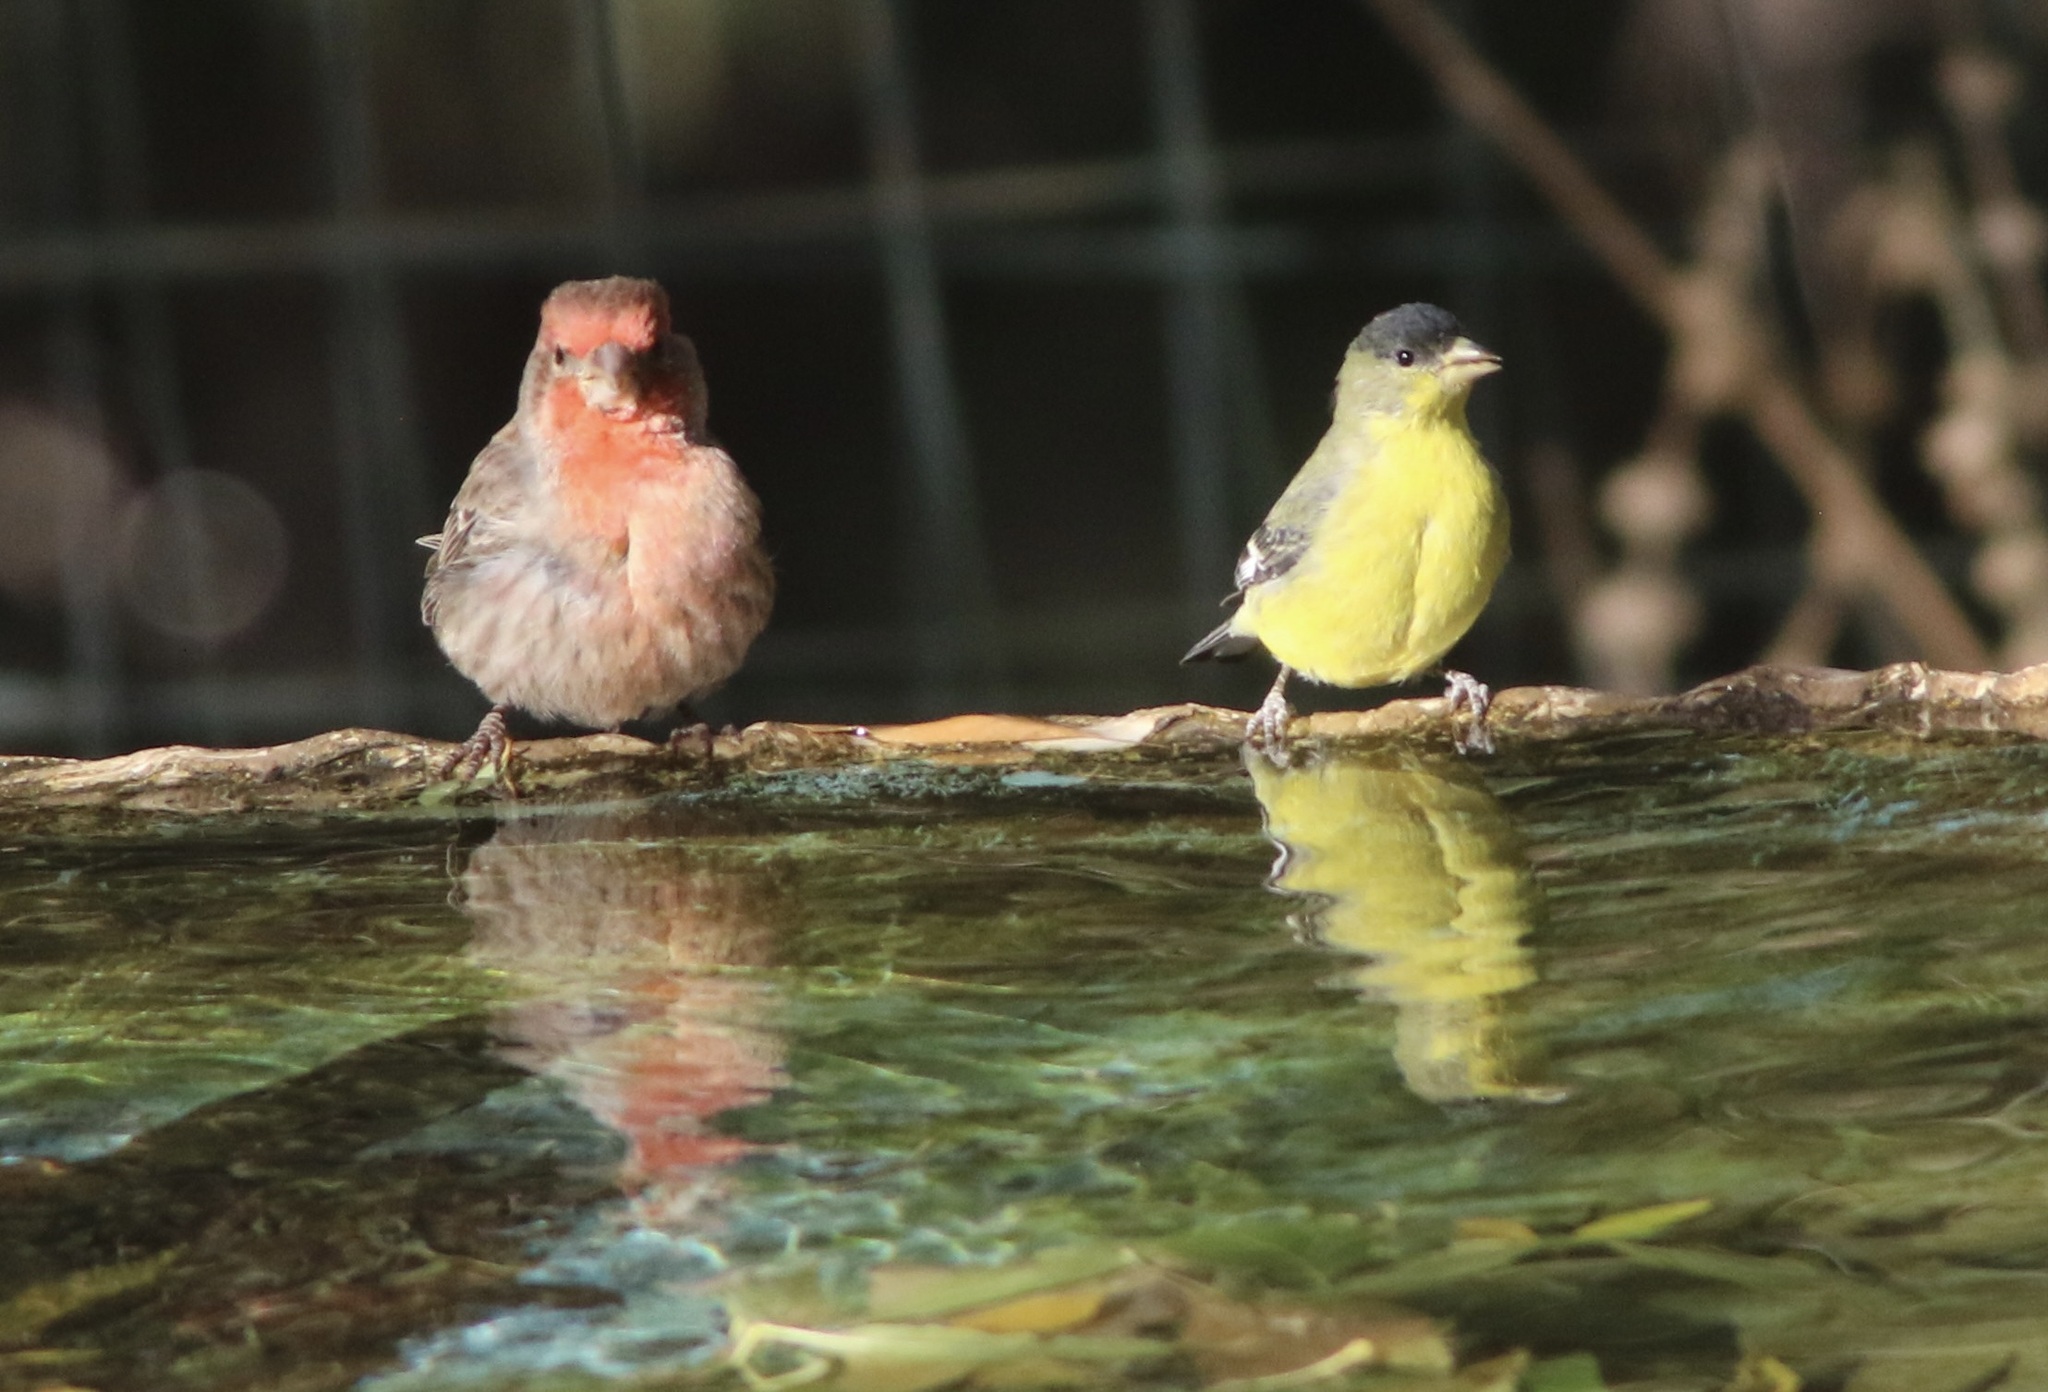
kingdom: Animalia
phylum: Chordata
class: Aves
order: Passeriformes
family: Fringillidae
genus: Spinus
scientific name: Spinus psaltria
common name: Lesser goldfinch
